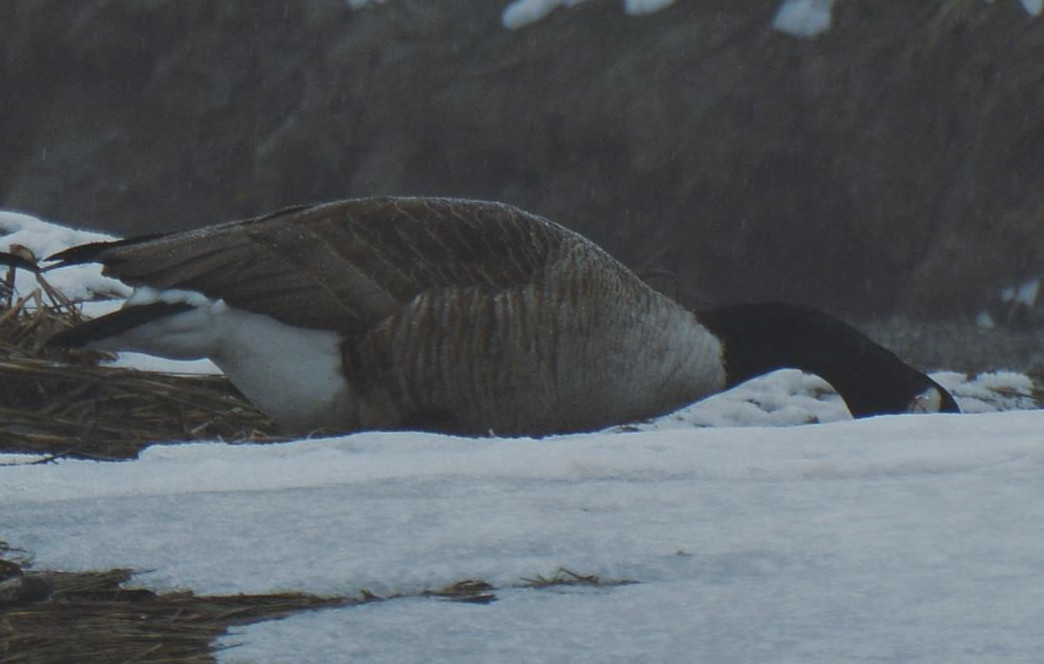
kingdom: Animalia
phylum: Chordata
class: Aves
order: Anseriformes
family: Anatidae
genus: Branta
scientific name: Branta canadensis
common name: Canada goose
